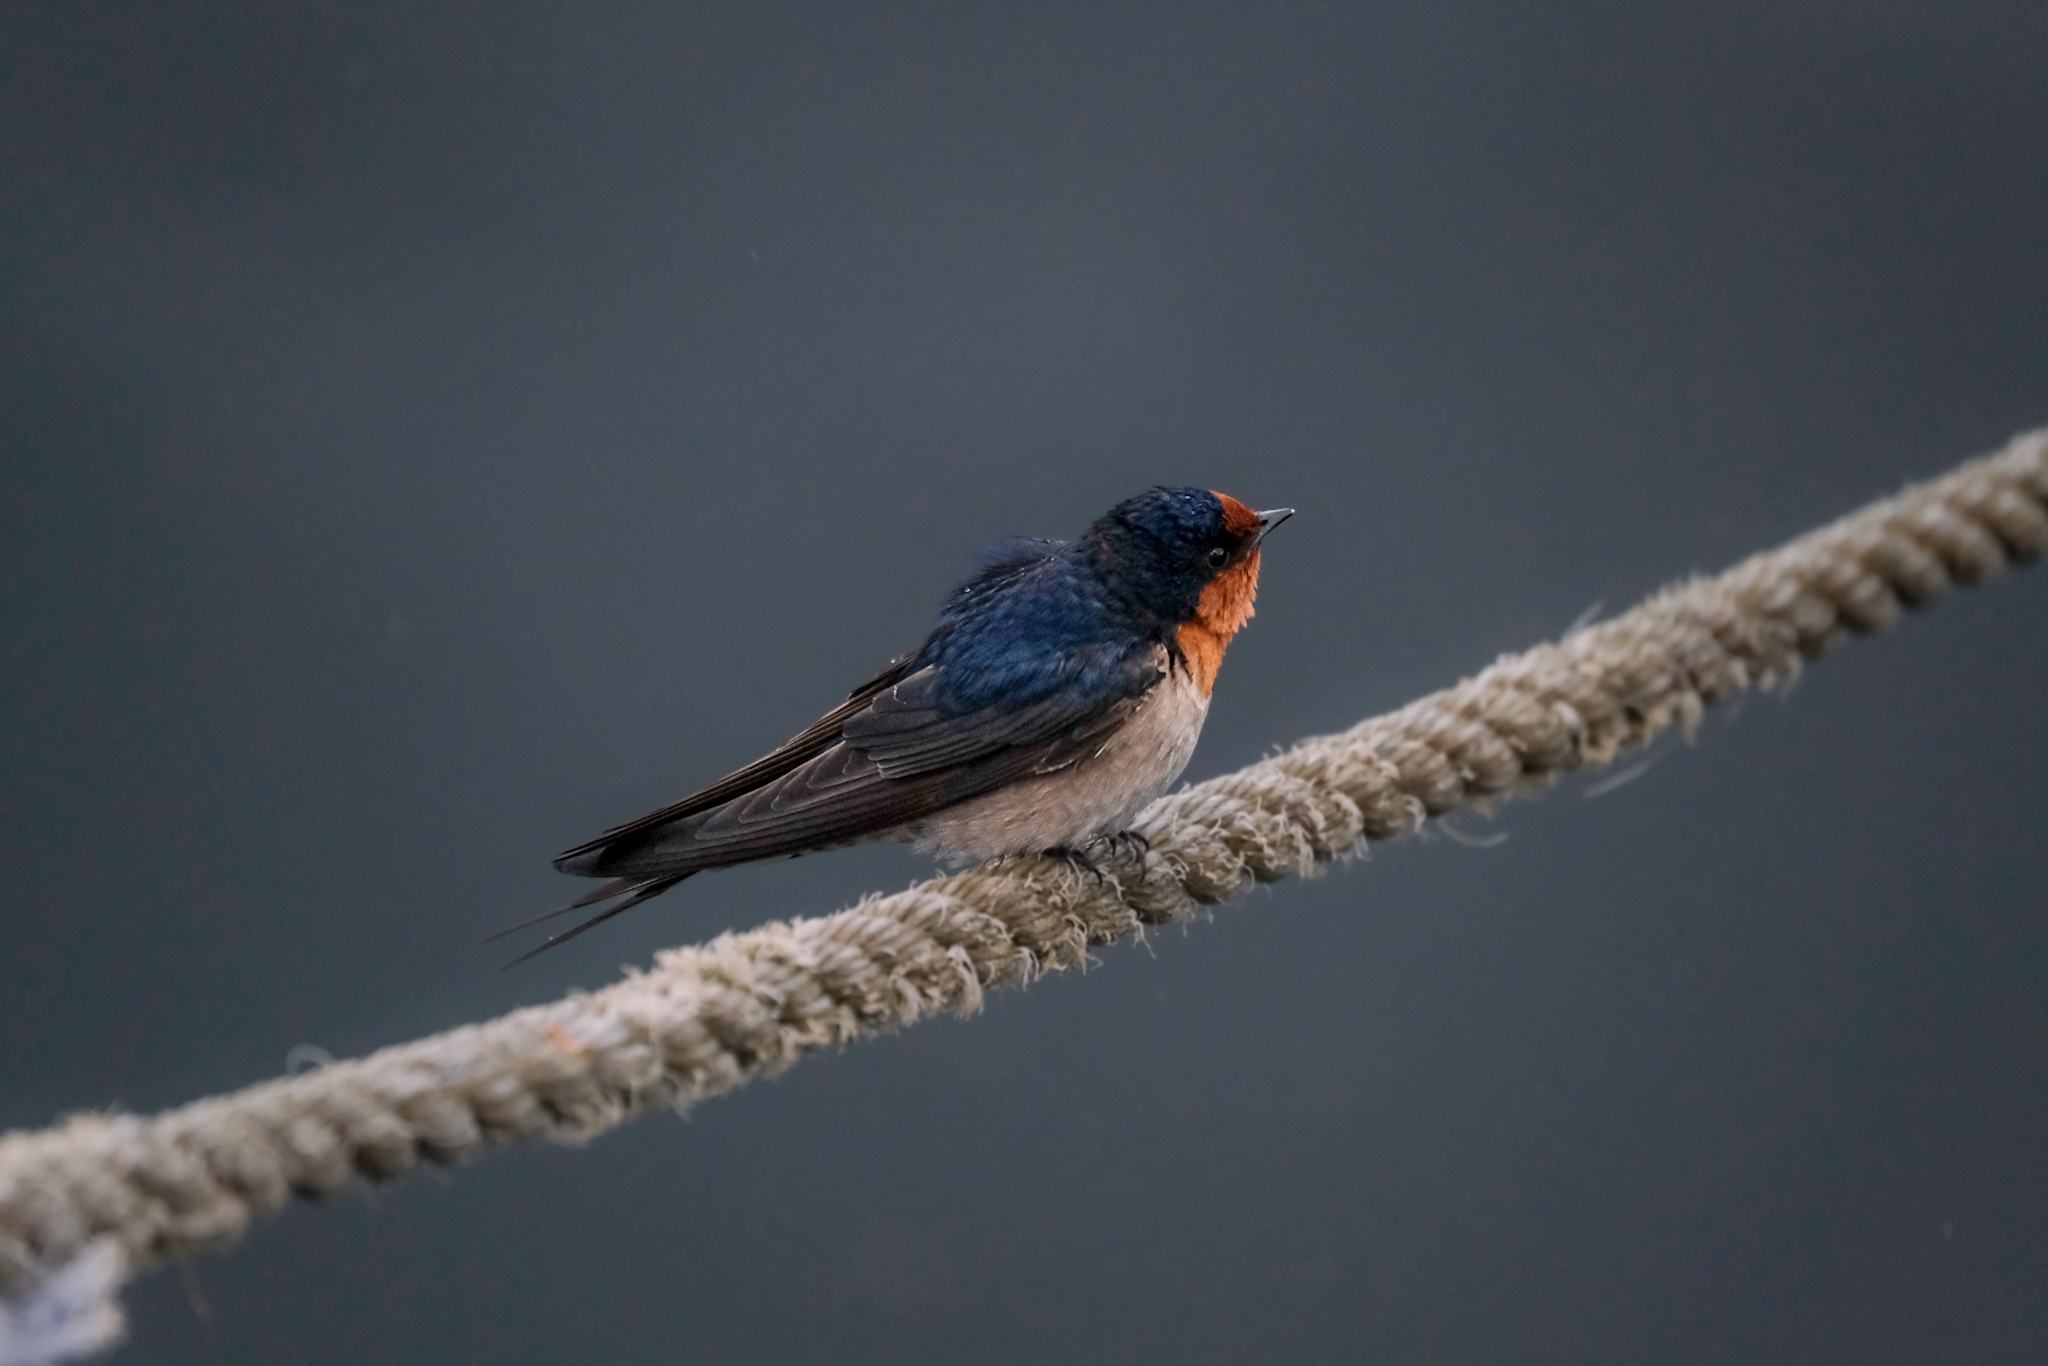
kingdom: Animalia
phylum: Chordata
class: Aves
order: Passeriformes
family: Hirundinidae
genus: Hirundo
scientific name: Hirundo neoxena
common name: Welcome swallow
